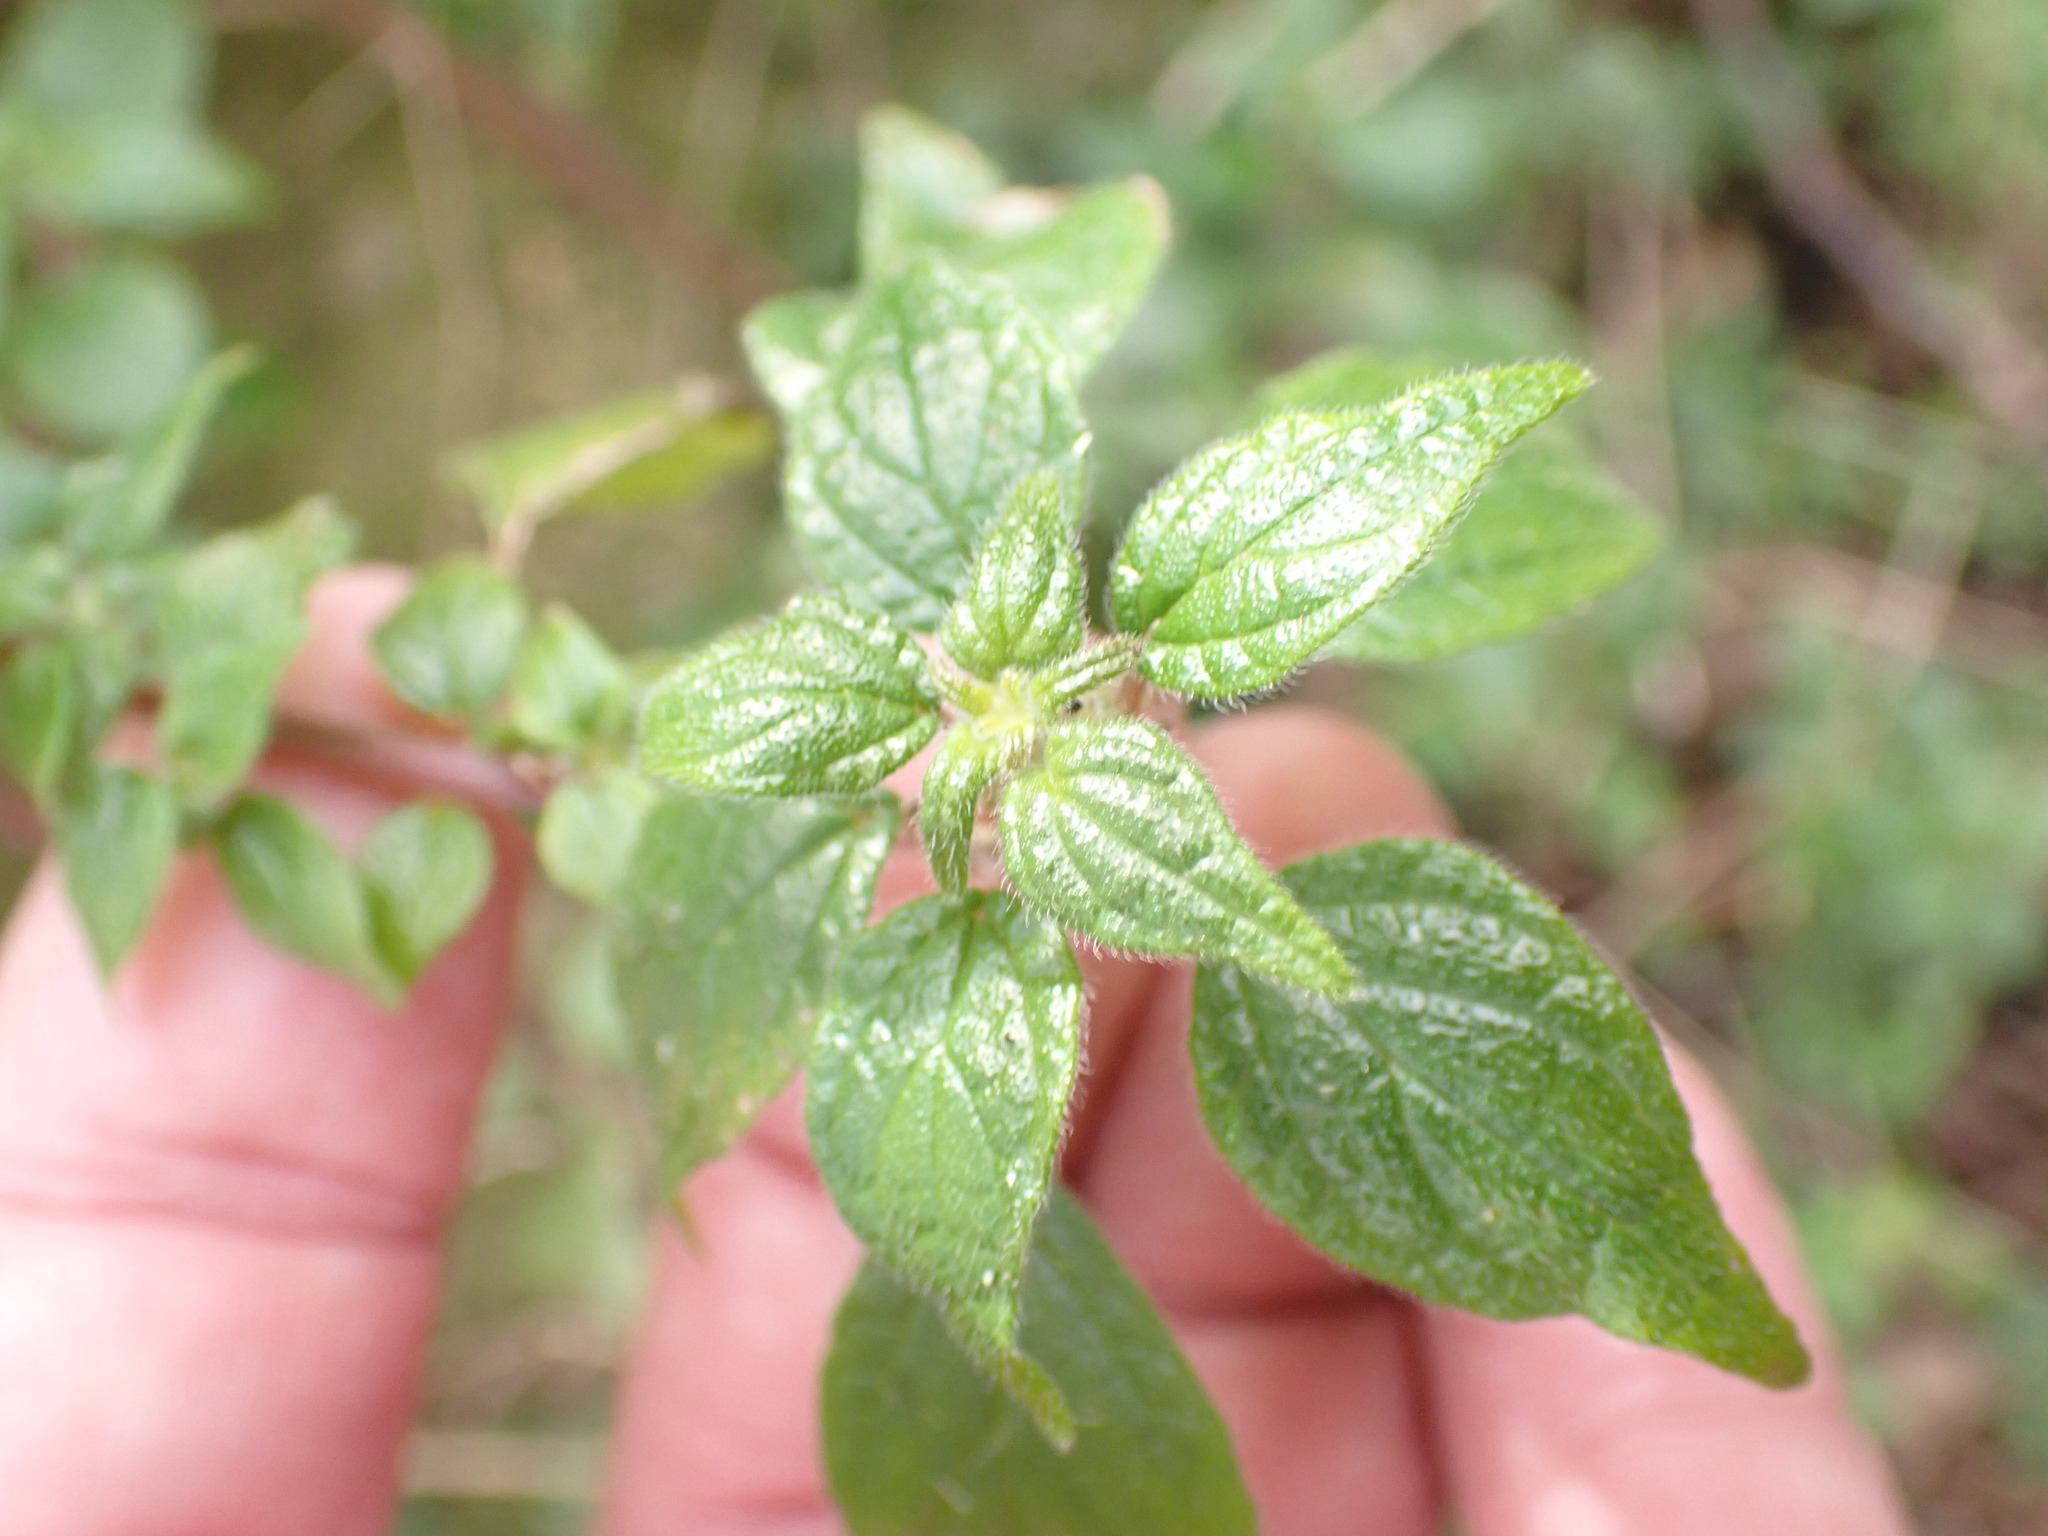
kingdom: Plantae
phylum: Tracheophyta
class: Magnoliopsida
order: Rosales
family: Urticaceae
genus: Parietaria
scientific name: Parietaria judaica
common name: Pellitory-of-the-wall
